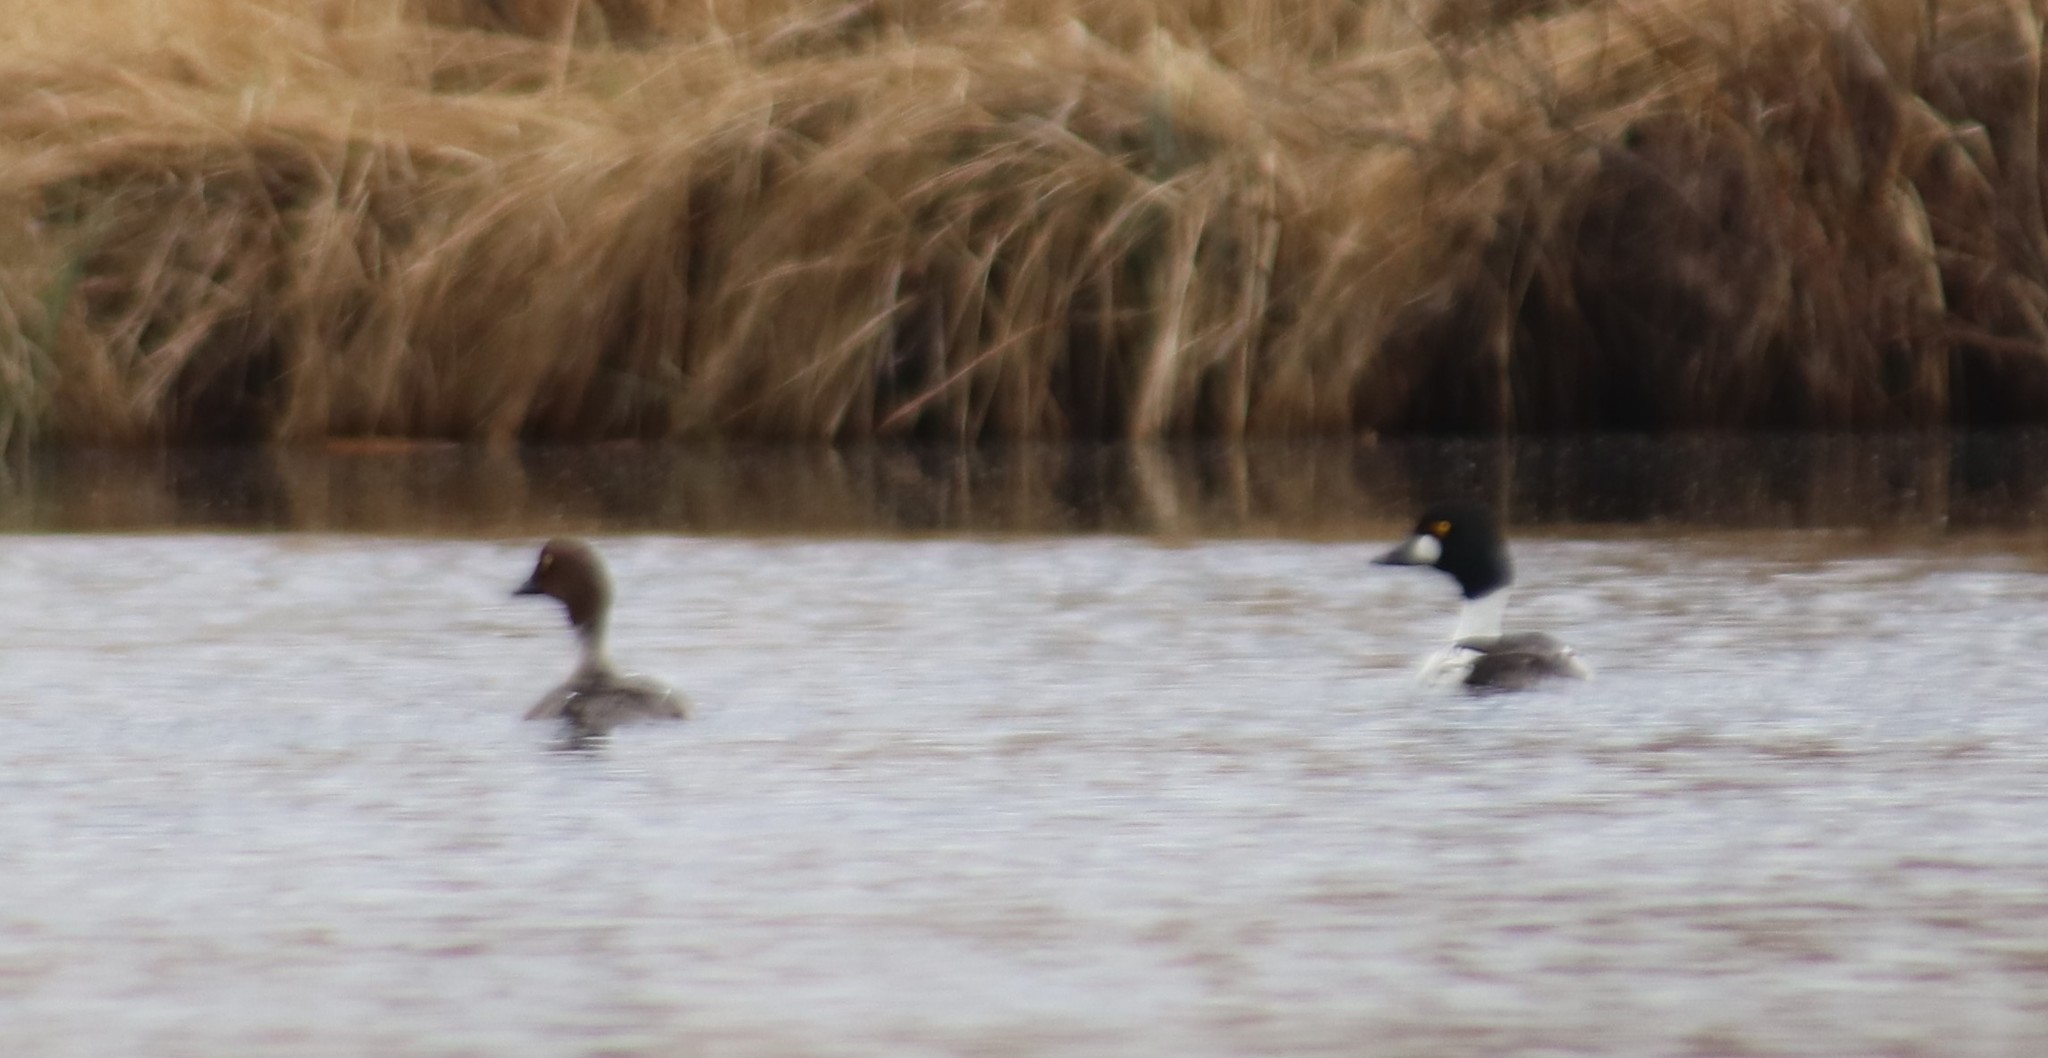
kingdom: Animalia
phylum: Chordata
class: Aves
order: Anseriformes
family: Anatidae
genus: Bucephala
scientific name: Bucephala clangula
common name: Common goldeneye
